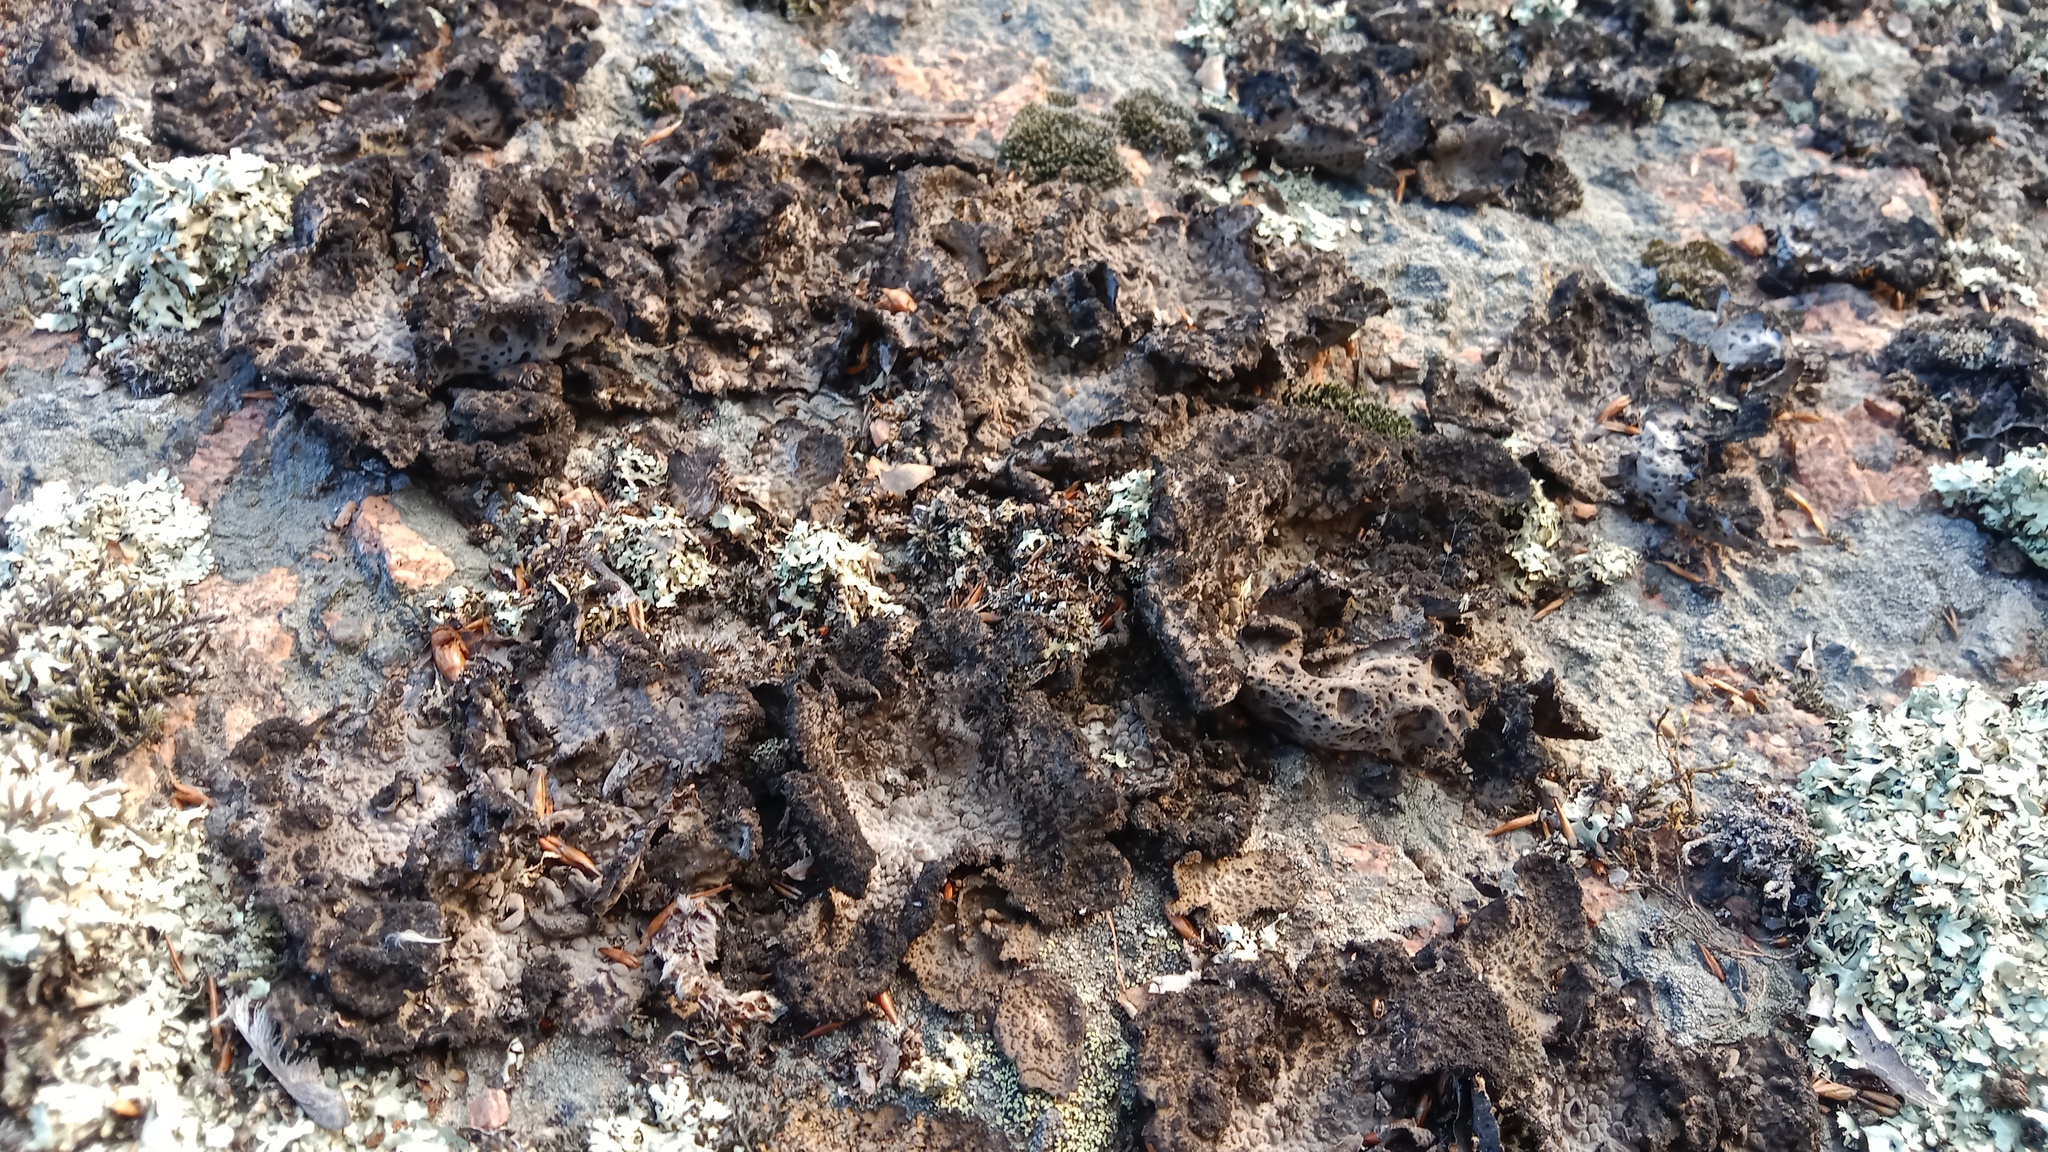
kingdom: Fungi
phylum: Ascomycota
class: Lecanoromycetes
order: Umbilicariales
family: Umbilicariaceae
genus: Lasallia
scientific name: Lasallia pustulata
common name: Blistered toadskin lichen
